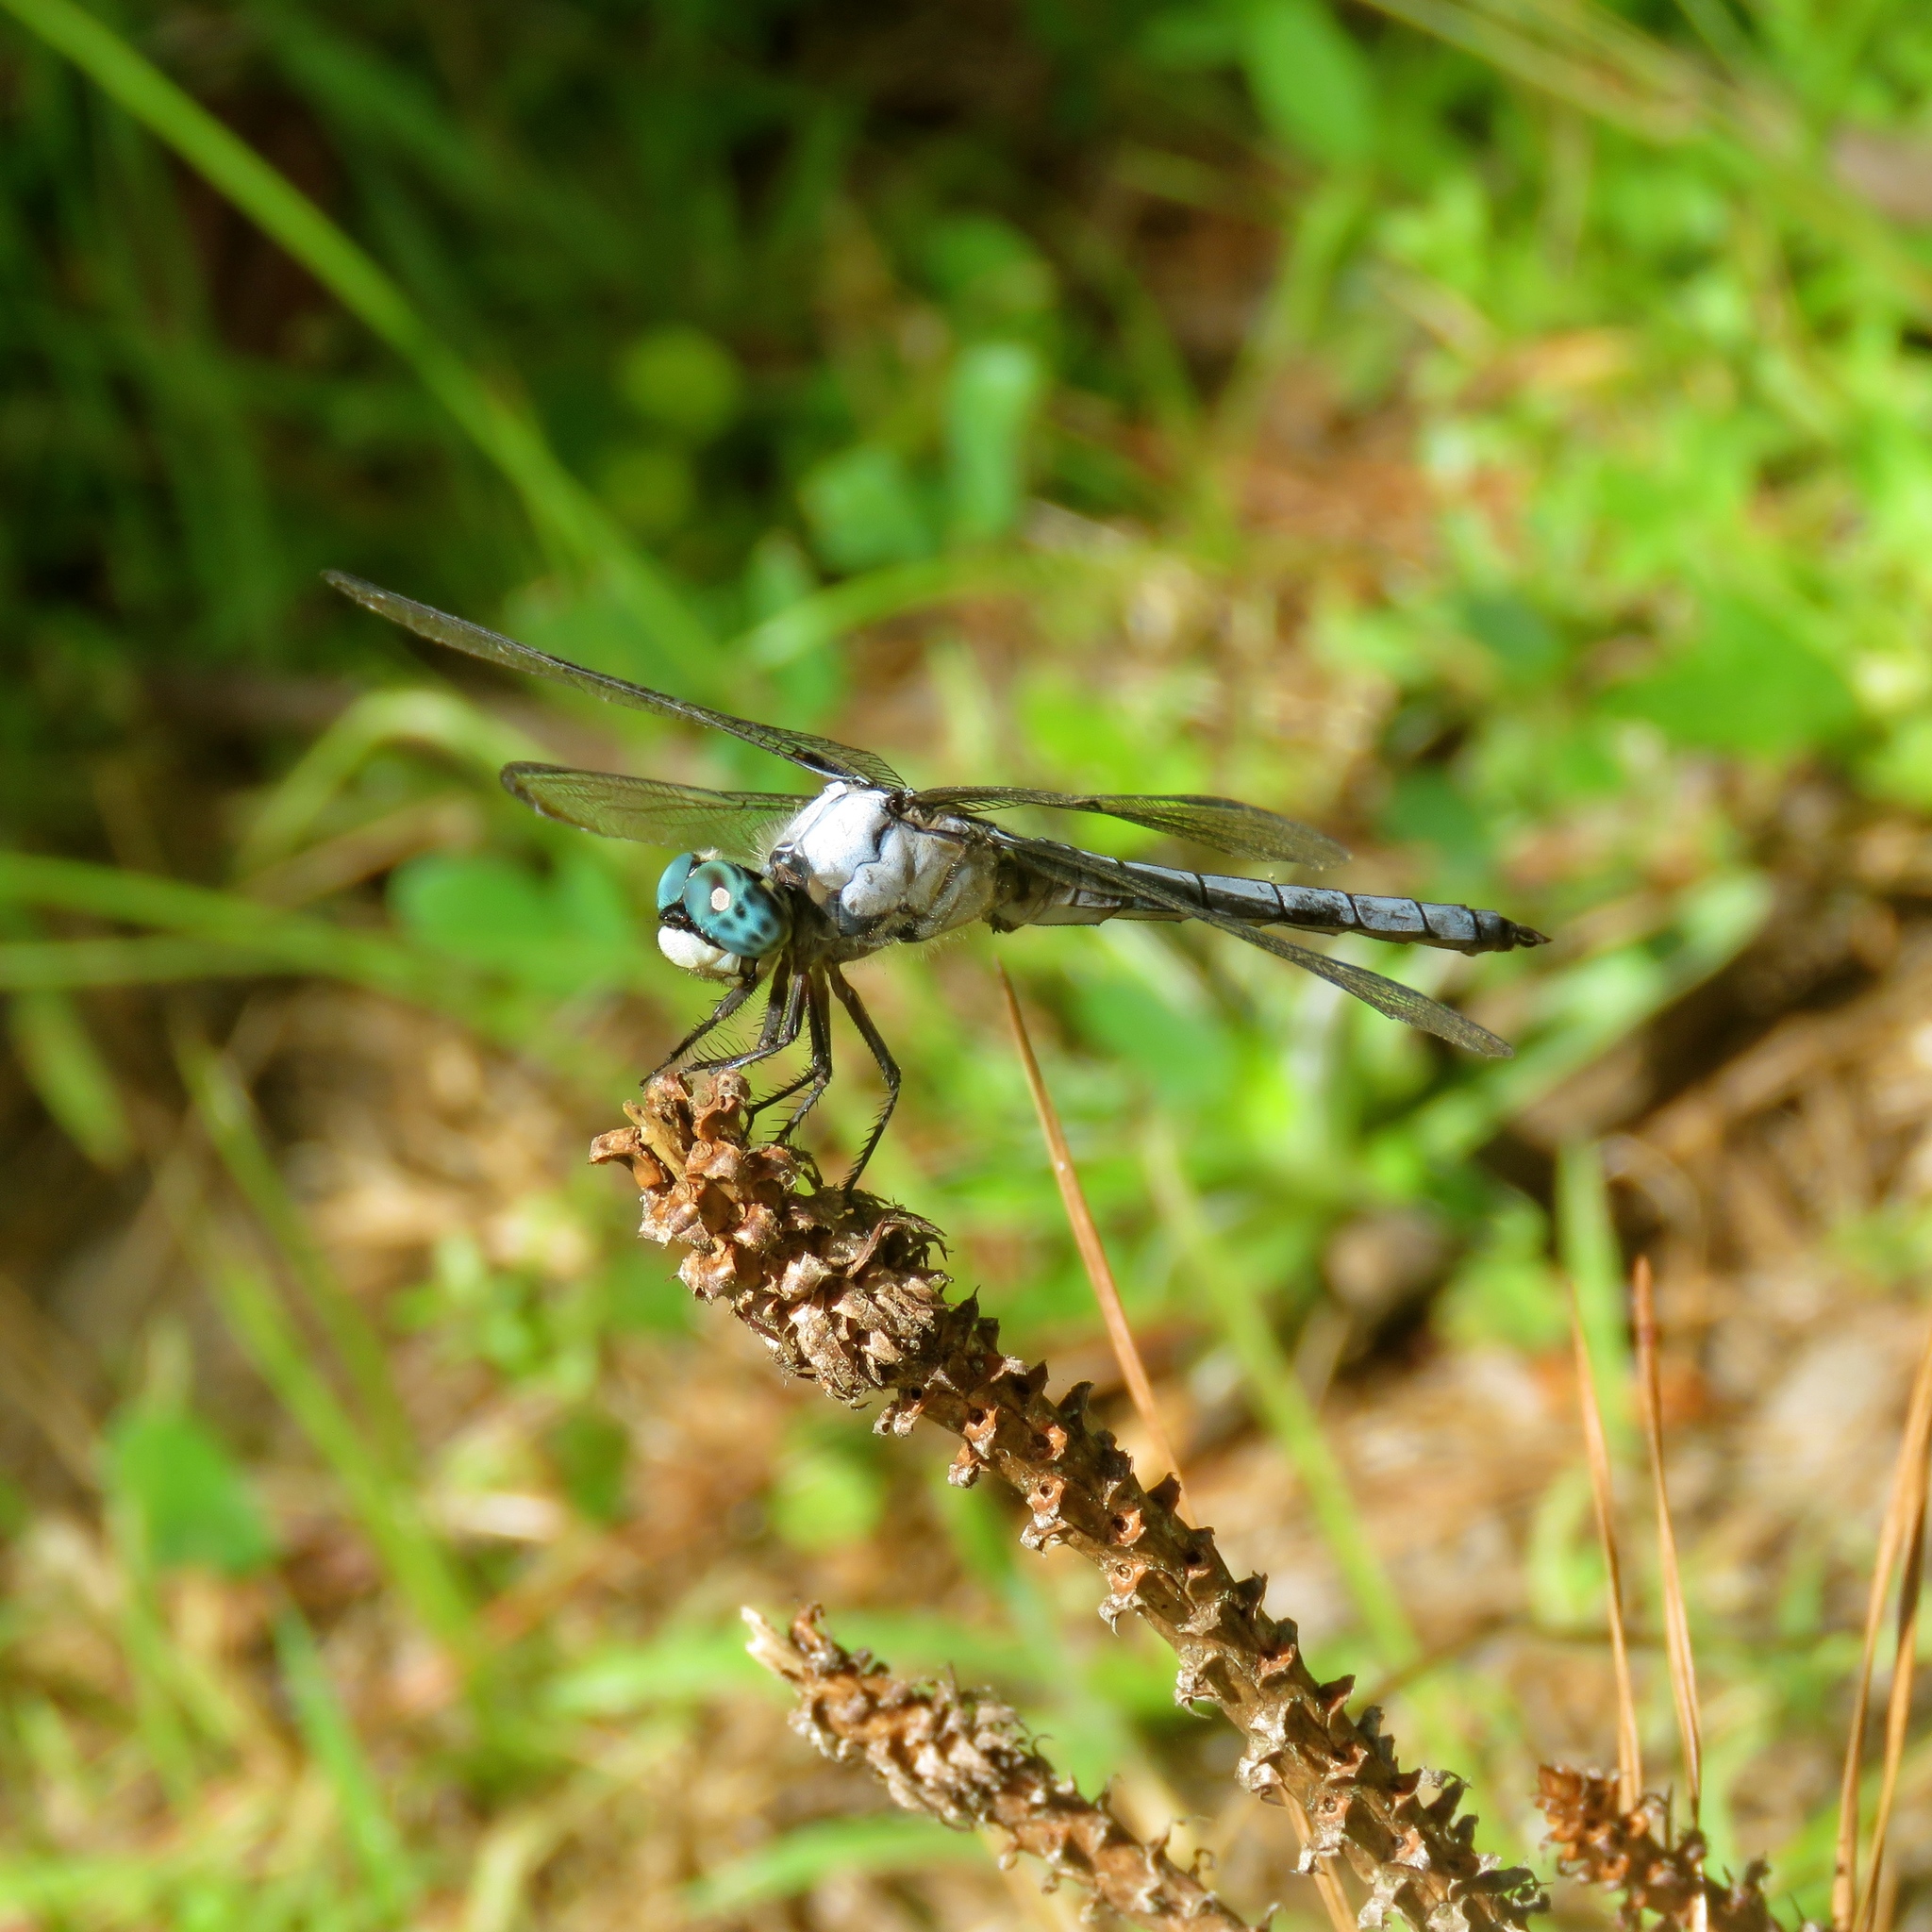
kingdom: Animalia
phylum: Arthropoda
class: Insecta
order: Odonata
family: Libellulidae
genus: Libellula
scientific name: Libellula vibrans
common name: Great blue skimmer
